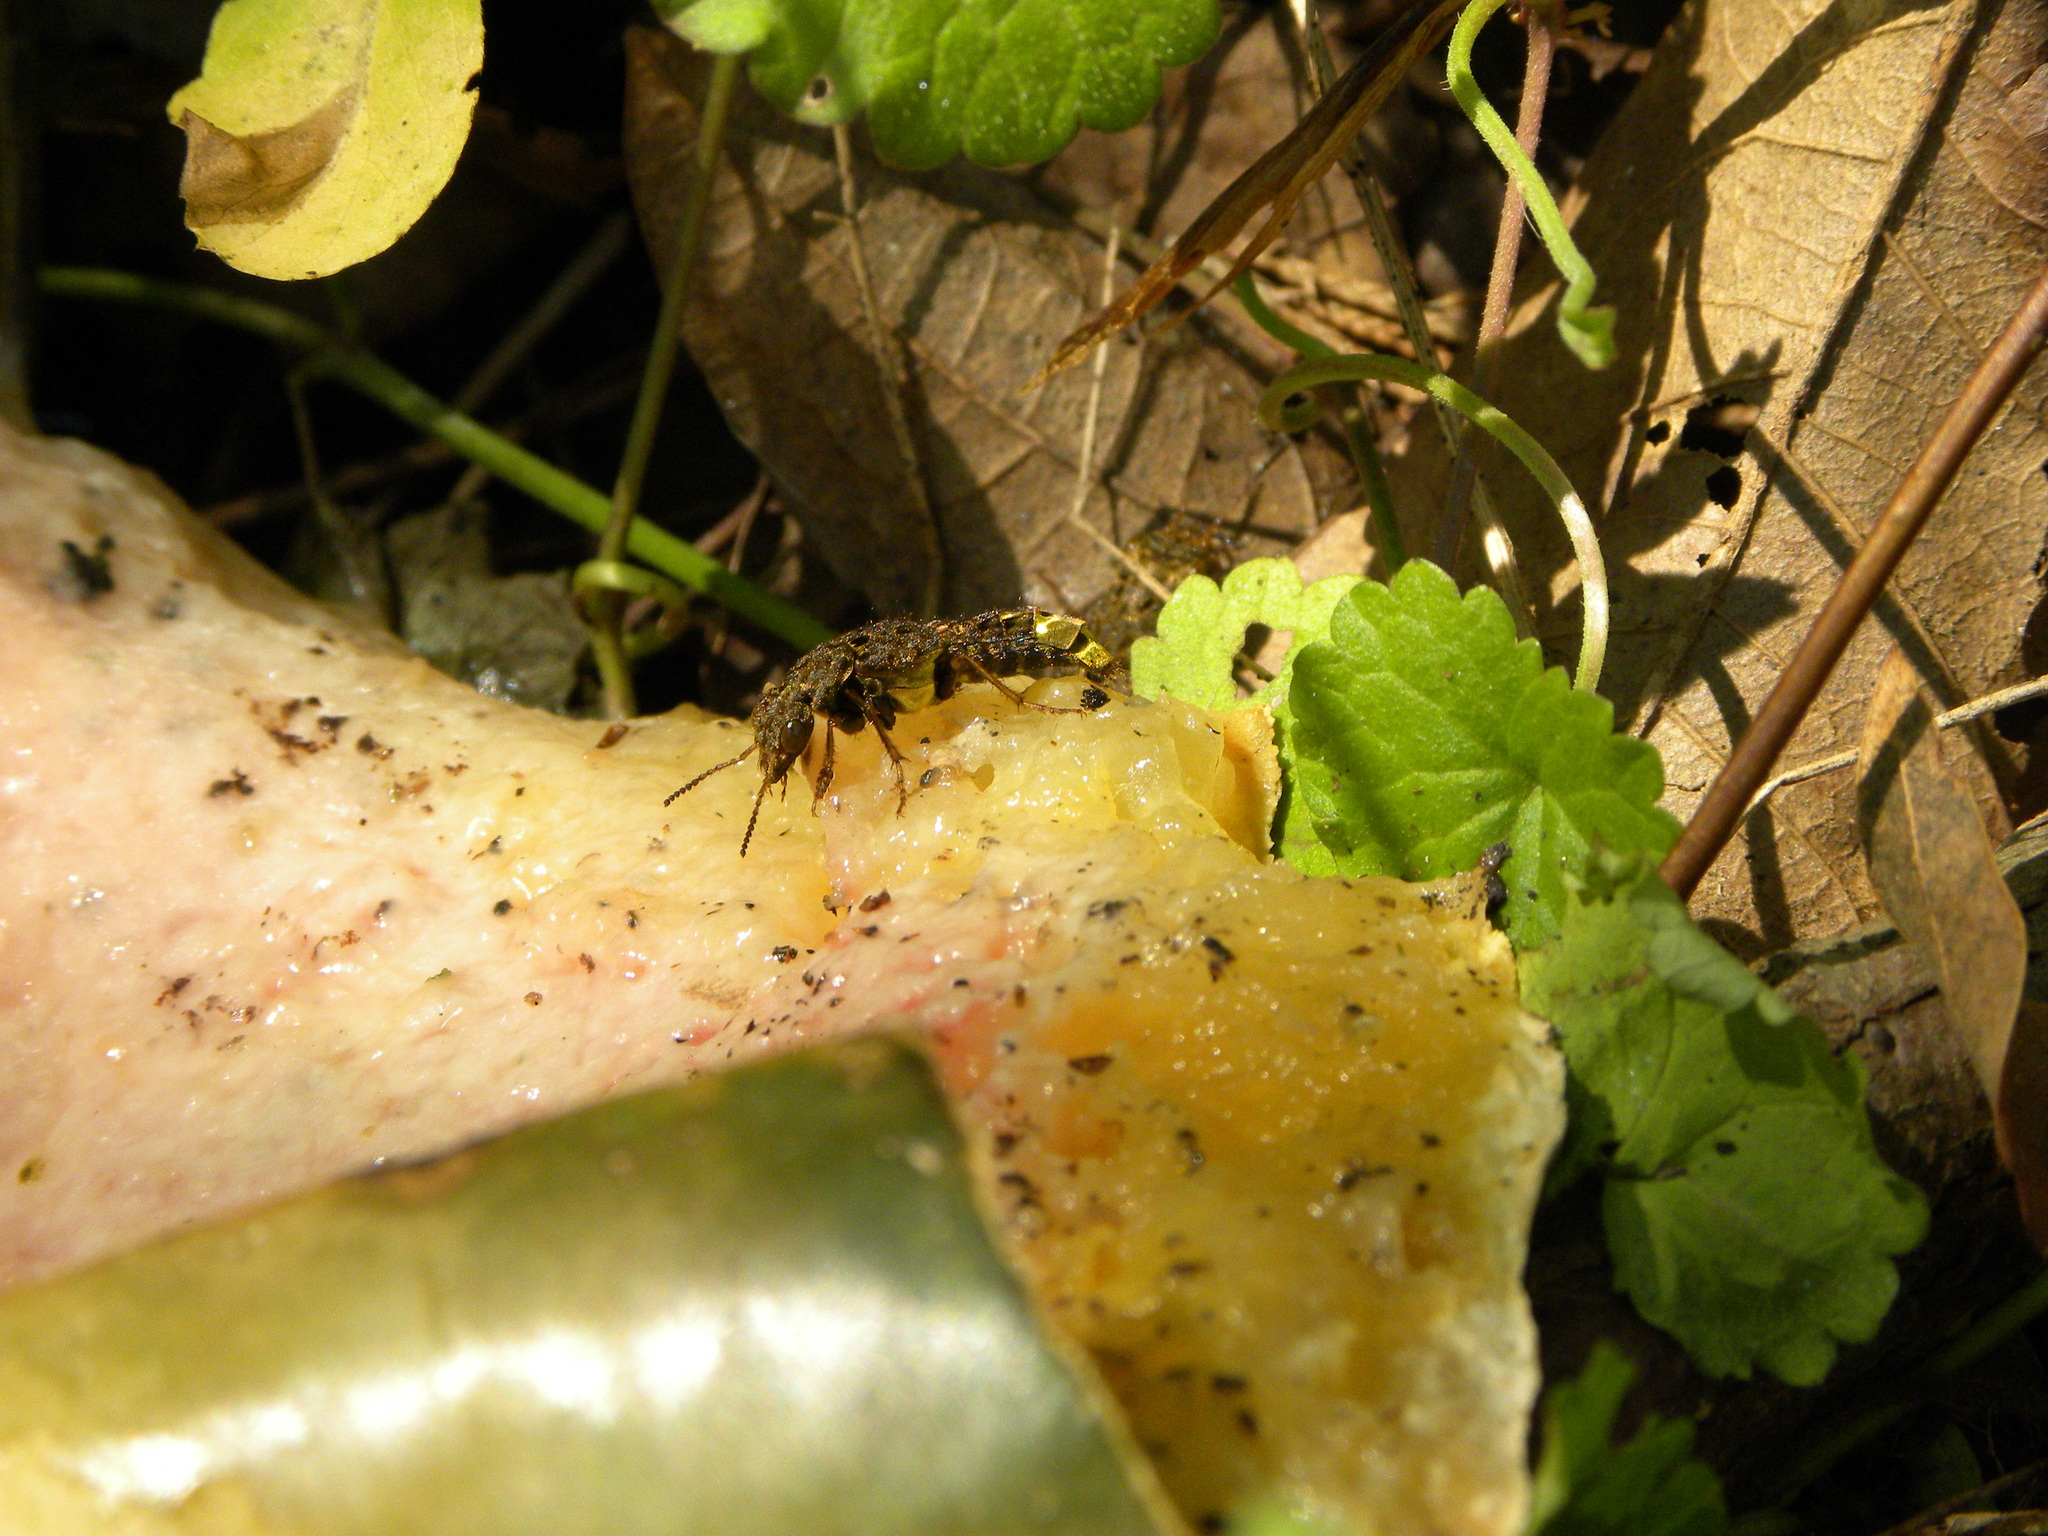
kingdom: Animalia
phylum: Arthropoda
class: Insecta
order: Coleoptera
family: Staphylinidae
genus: Ontholestes
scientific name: Ontholestes cingulatus
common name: Gold-and-brown rove beetle
